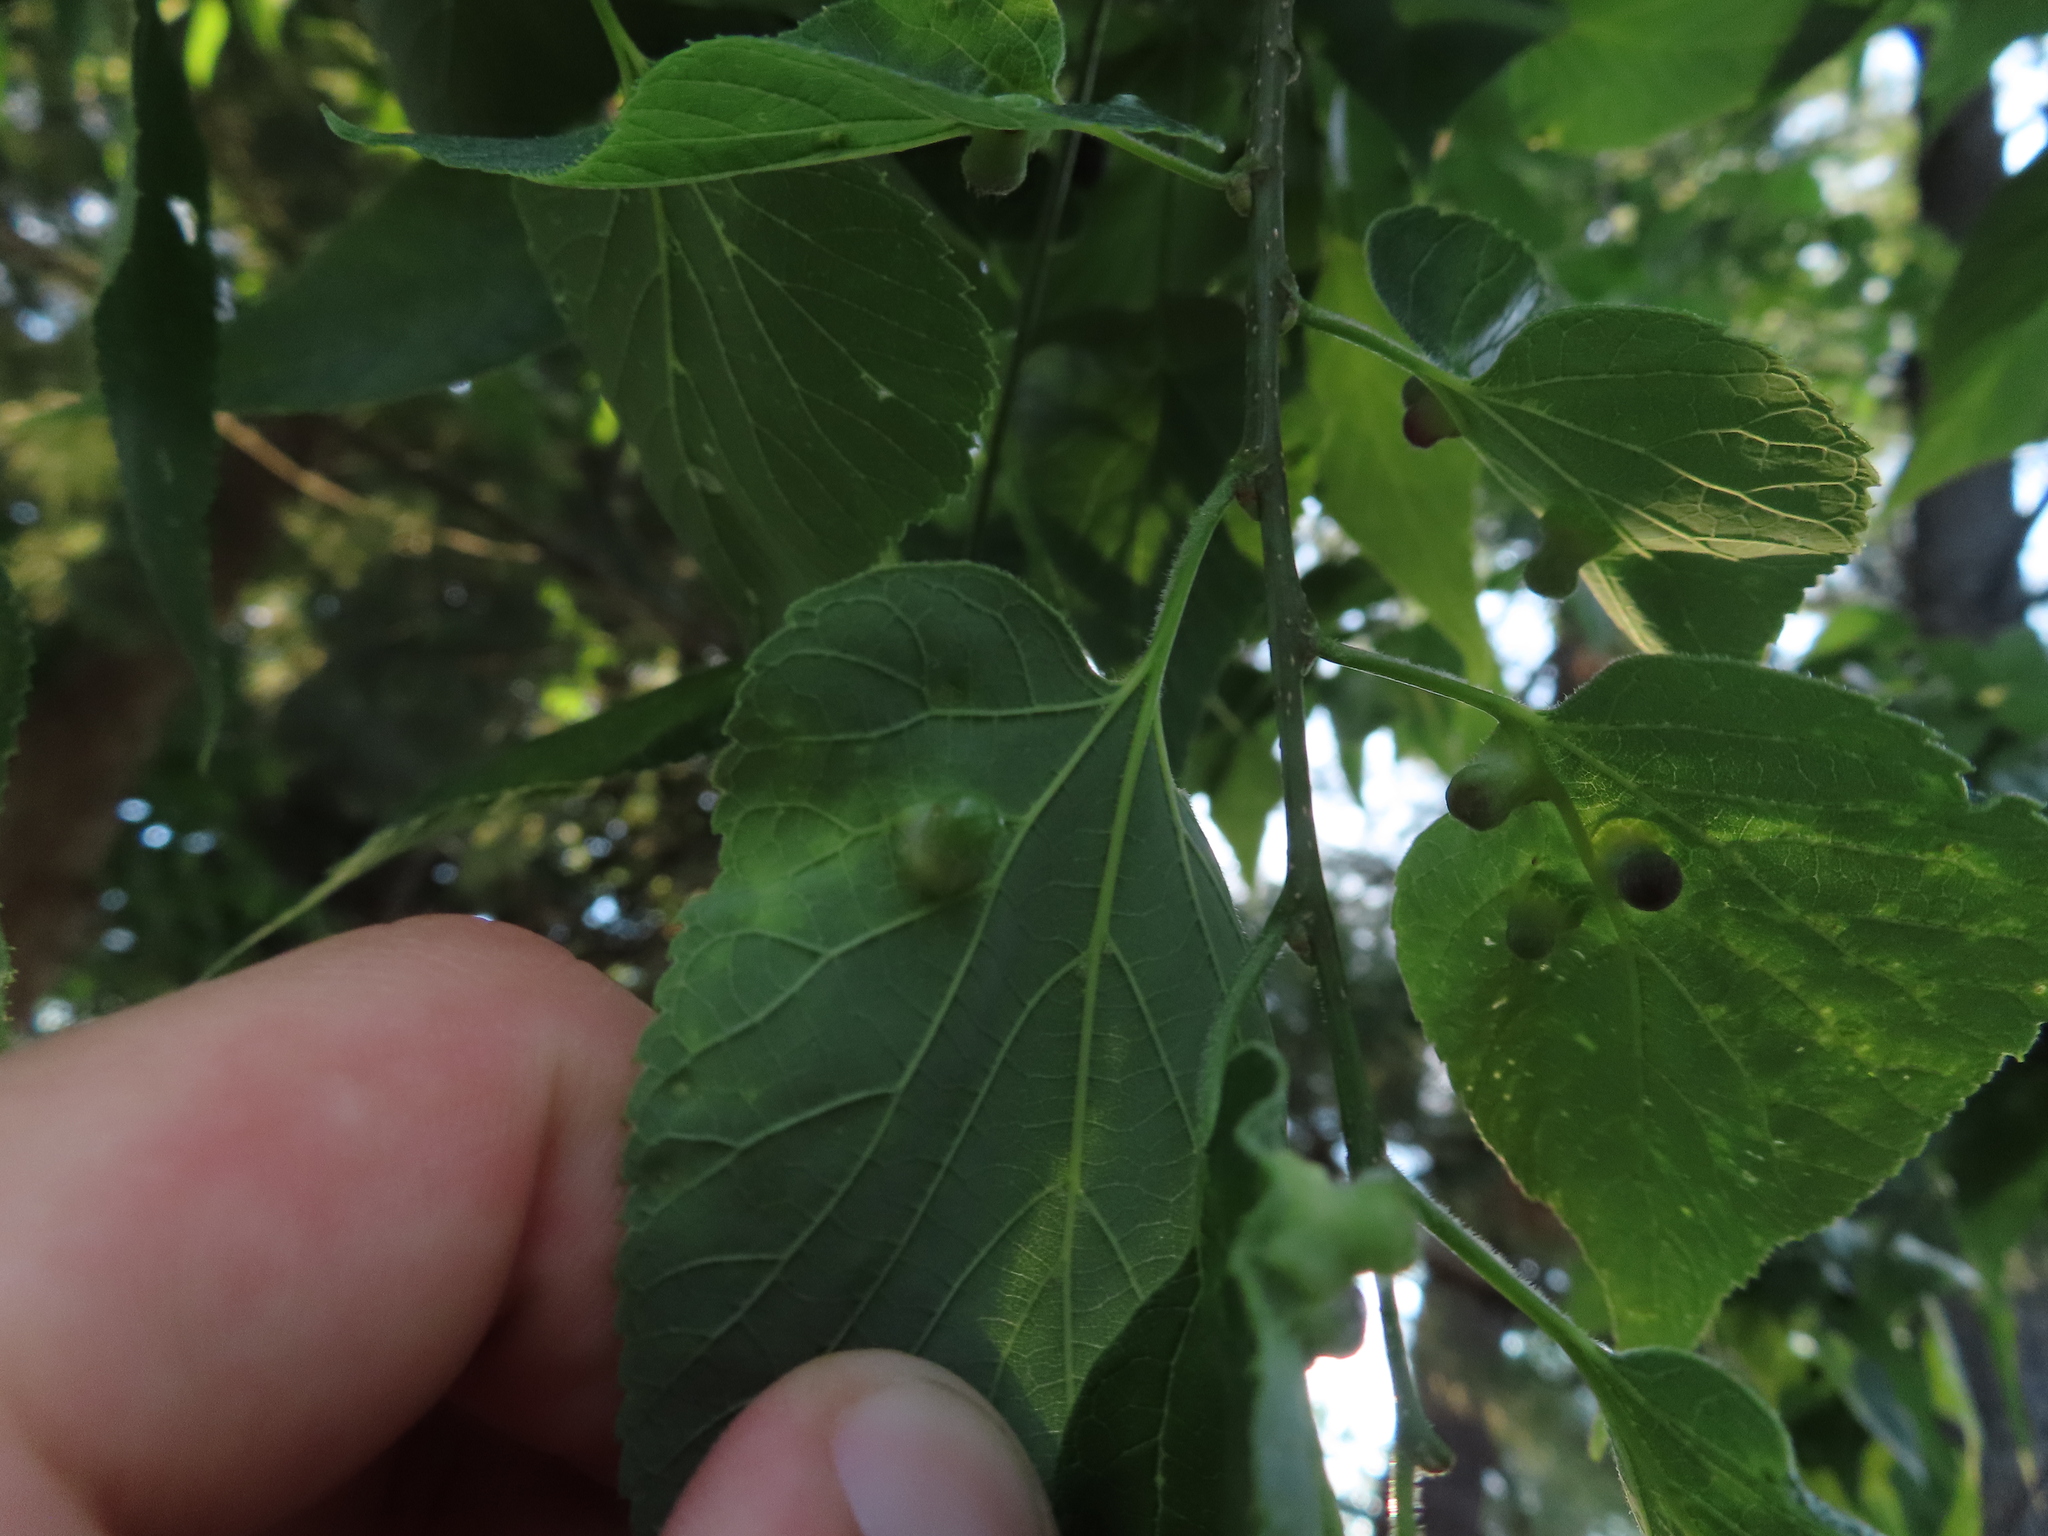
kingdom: Animalia
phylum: Arthropoda
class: Insecta
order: Hemiptera
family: Aphalaridae
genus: Pachypsylla
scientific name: Pachypsylla celtidismamma
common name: Hackberry nipplegall psyllid
